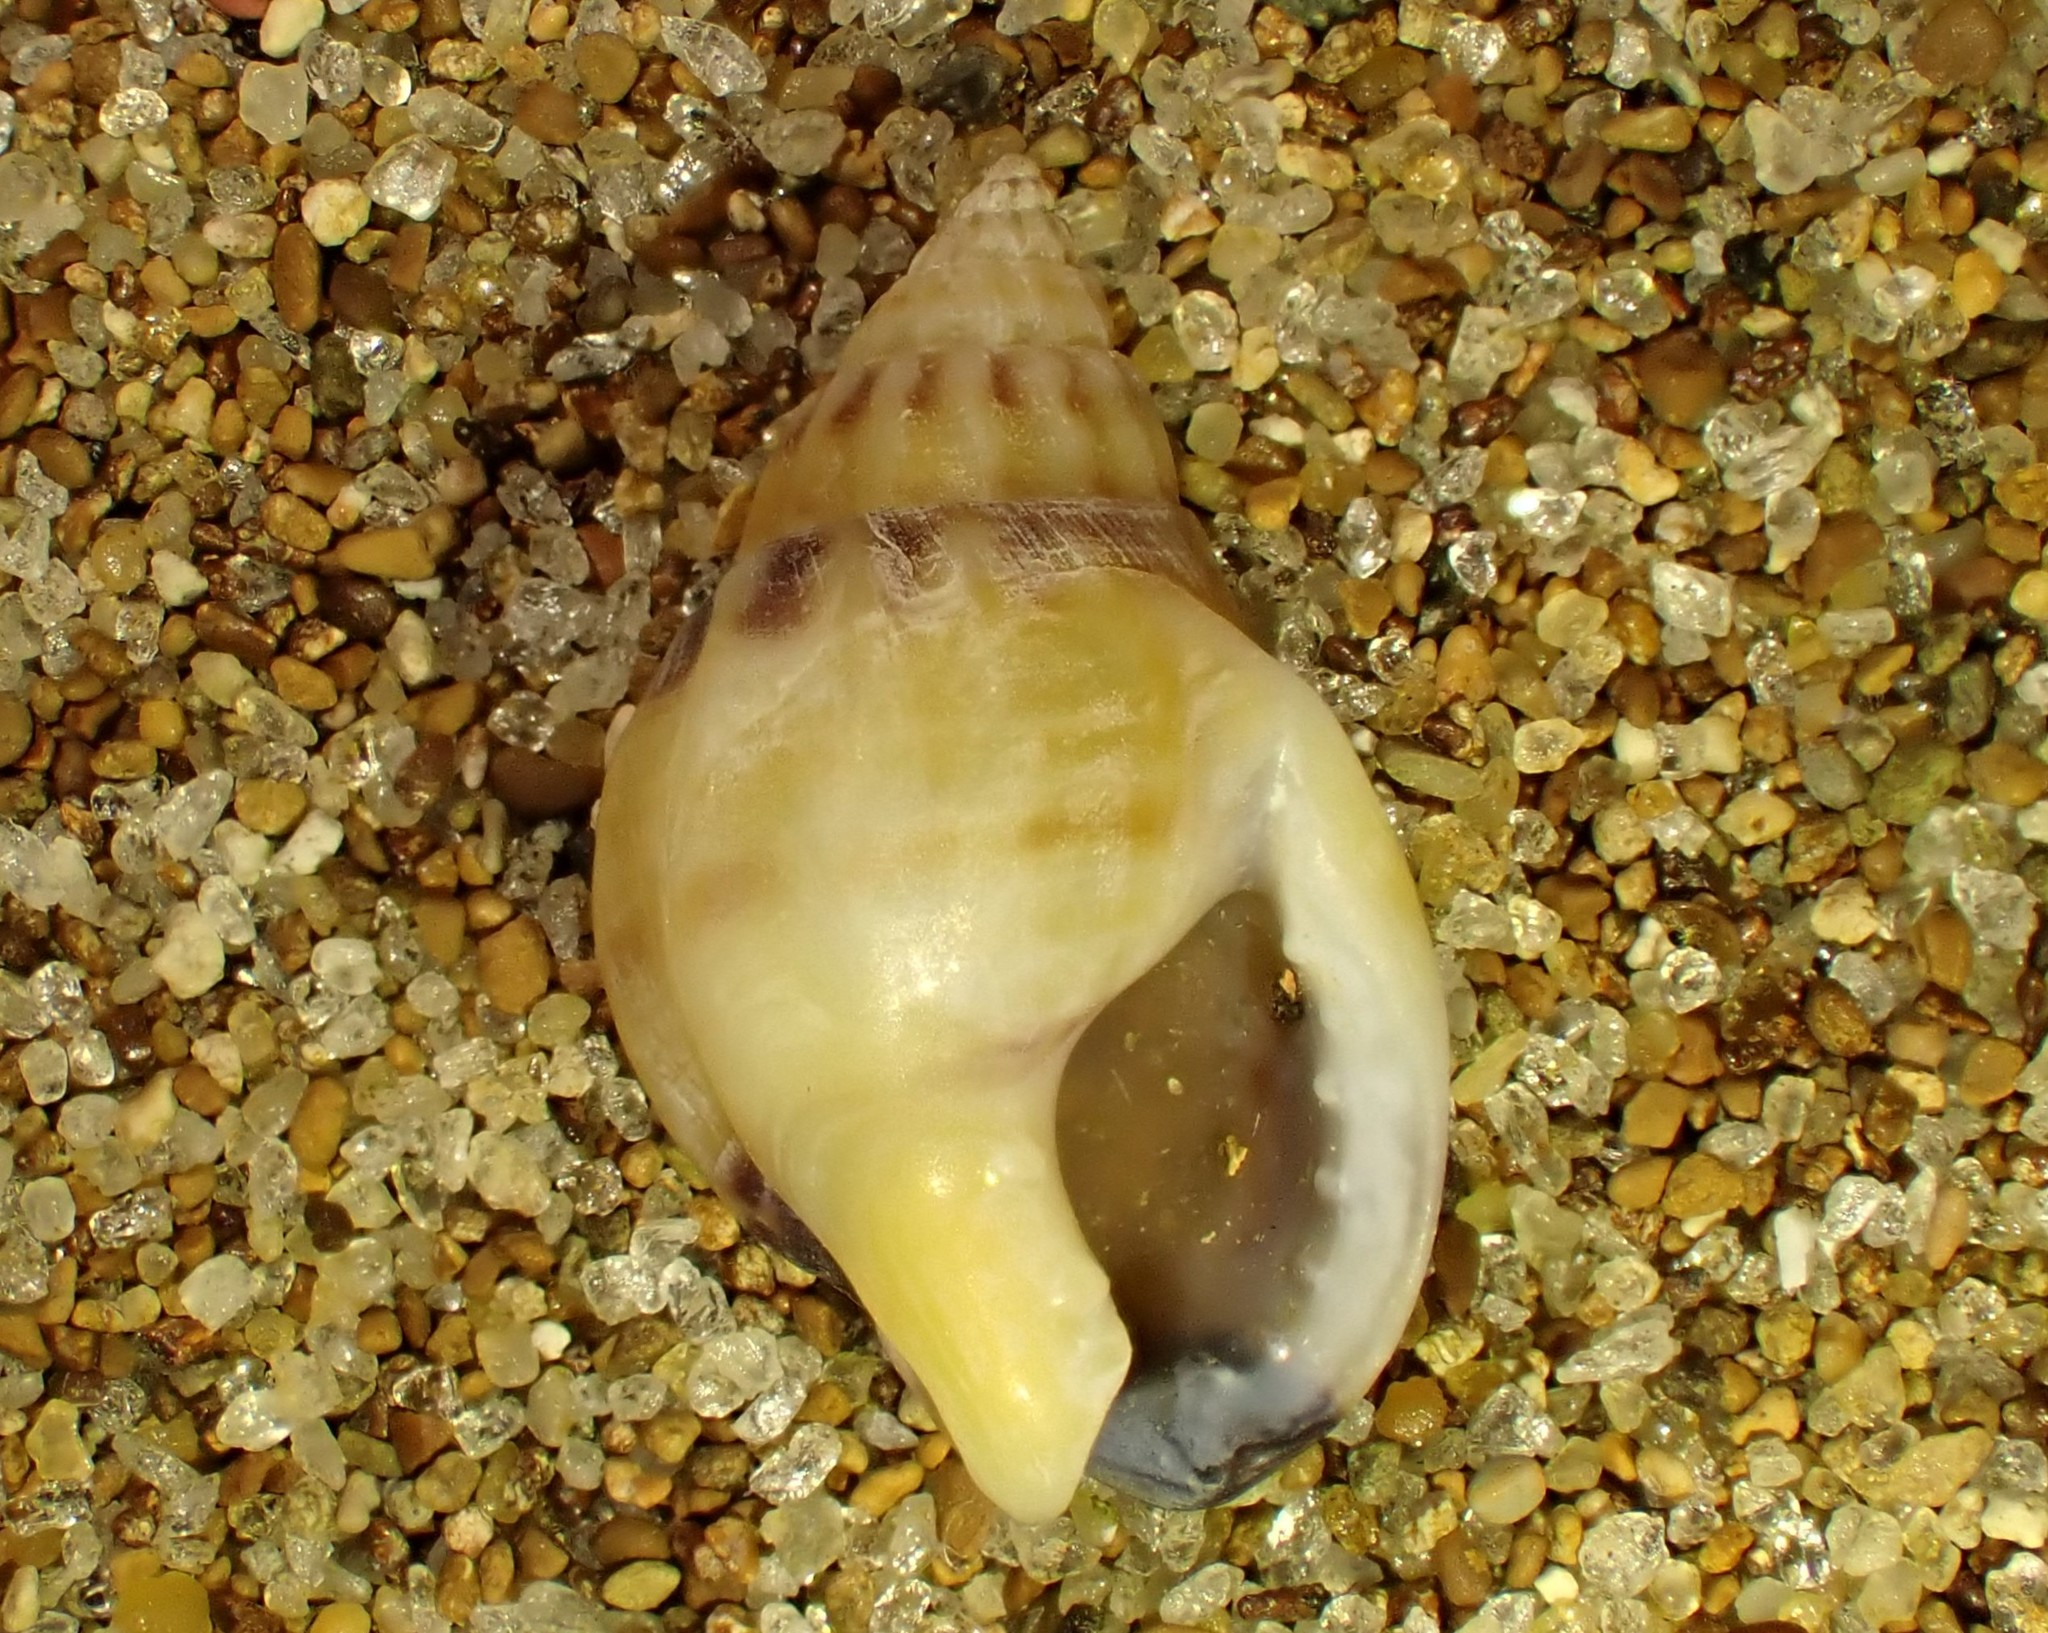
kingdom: Animalia
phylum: Mollusca
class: Gastropoda
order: Neogastropoda
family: Nassariidae
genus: Tritia
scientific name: Tritia burchardi
